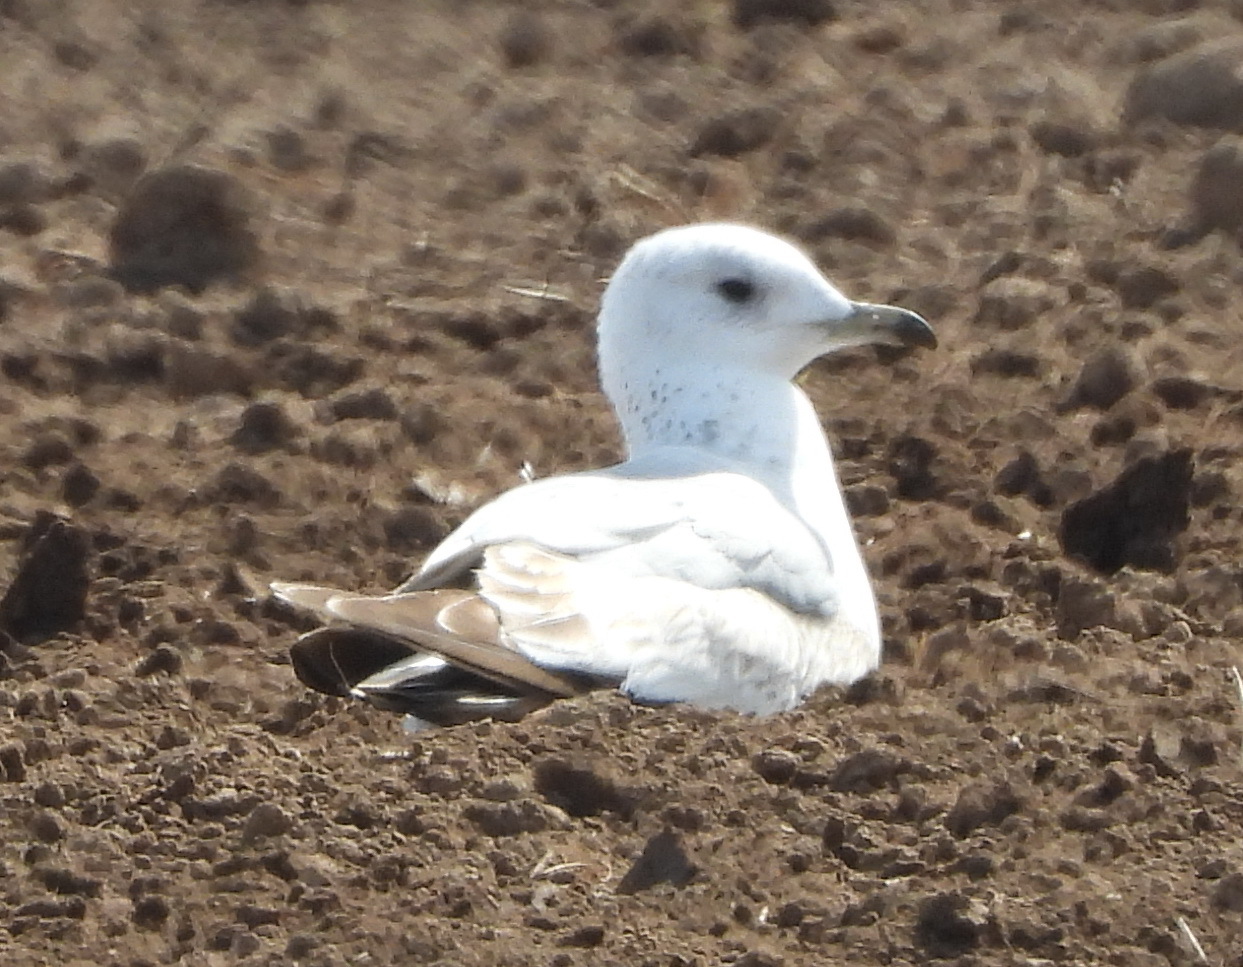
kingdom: Animalia
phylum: Chordata
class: Aves
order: Charadriiformes
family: Laridae
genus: Larus
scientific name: Larus canus
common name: Mew gull
